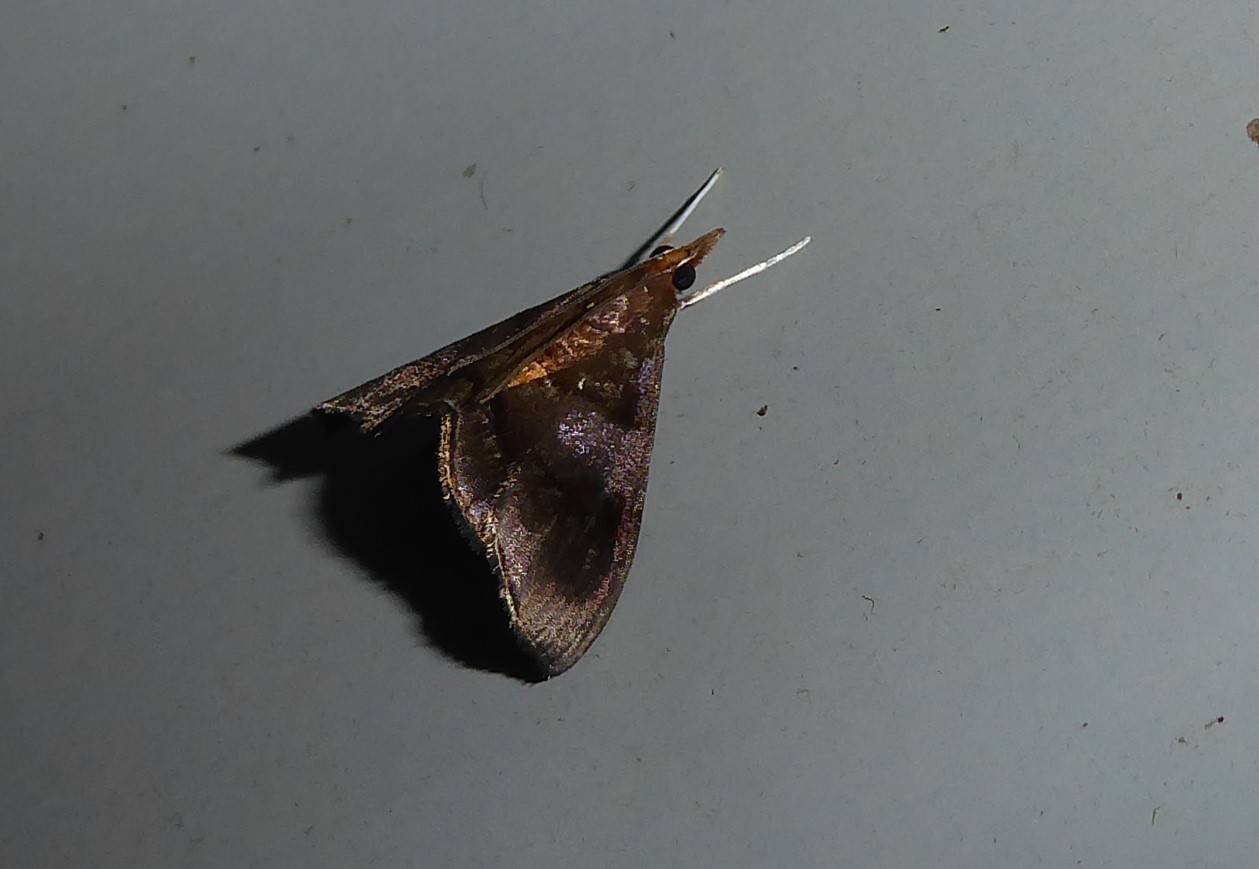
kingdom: Animalia
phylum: Arthropoda
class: Insecta
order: Lepidoptera
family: Crambidae
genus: Hemiscopis
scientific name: Hemiscopis violacea
